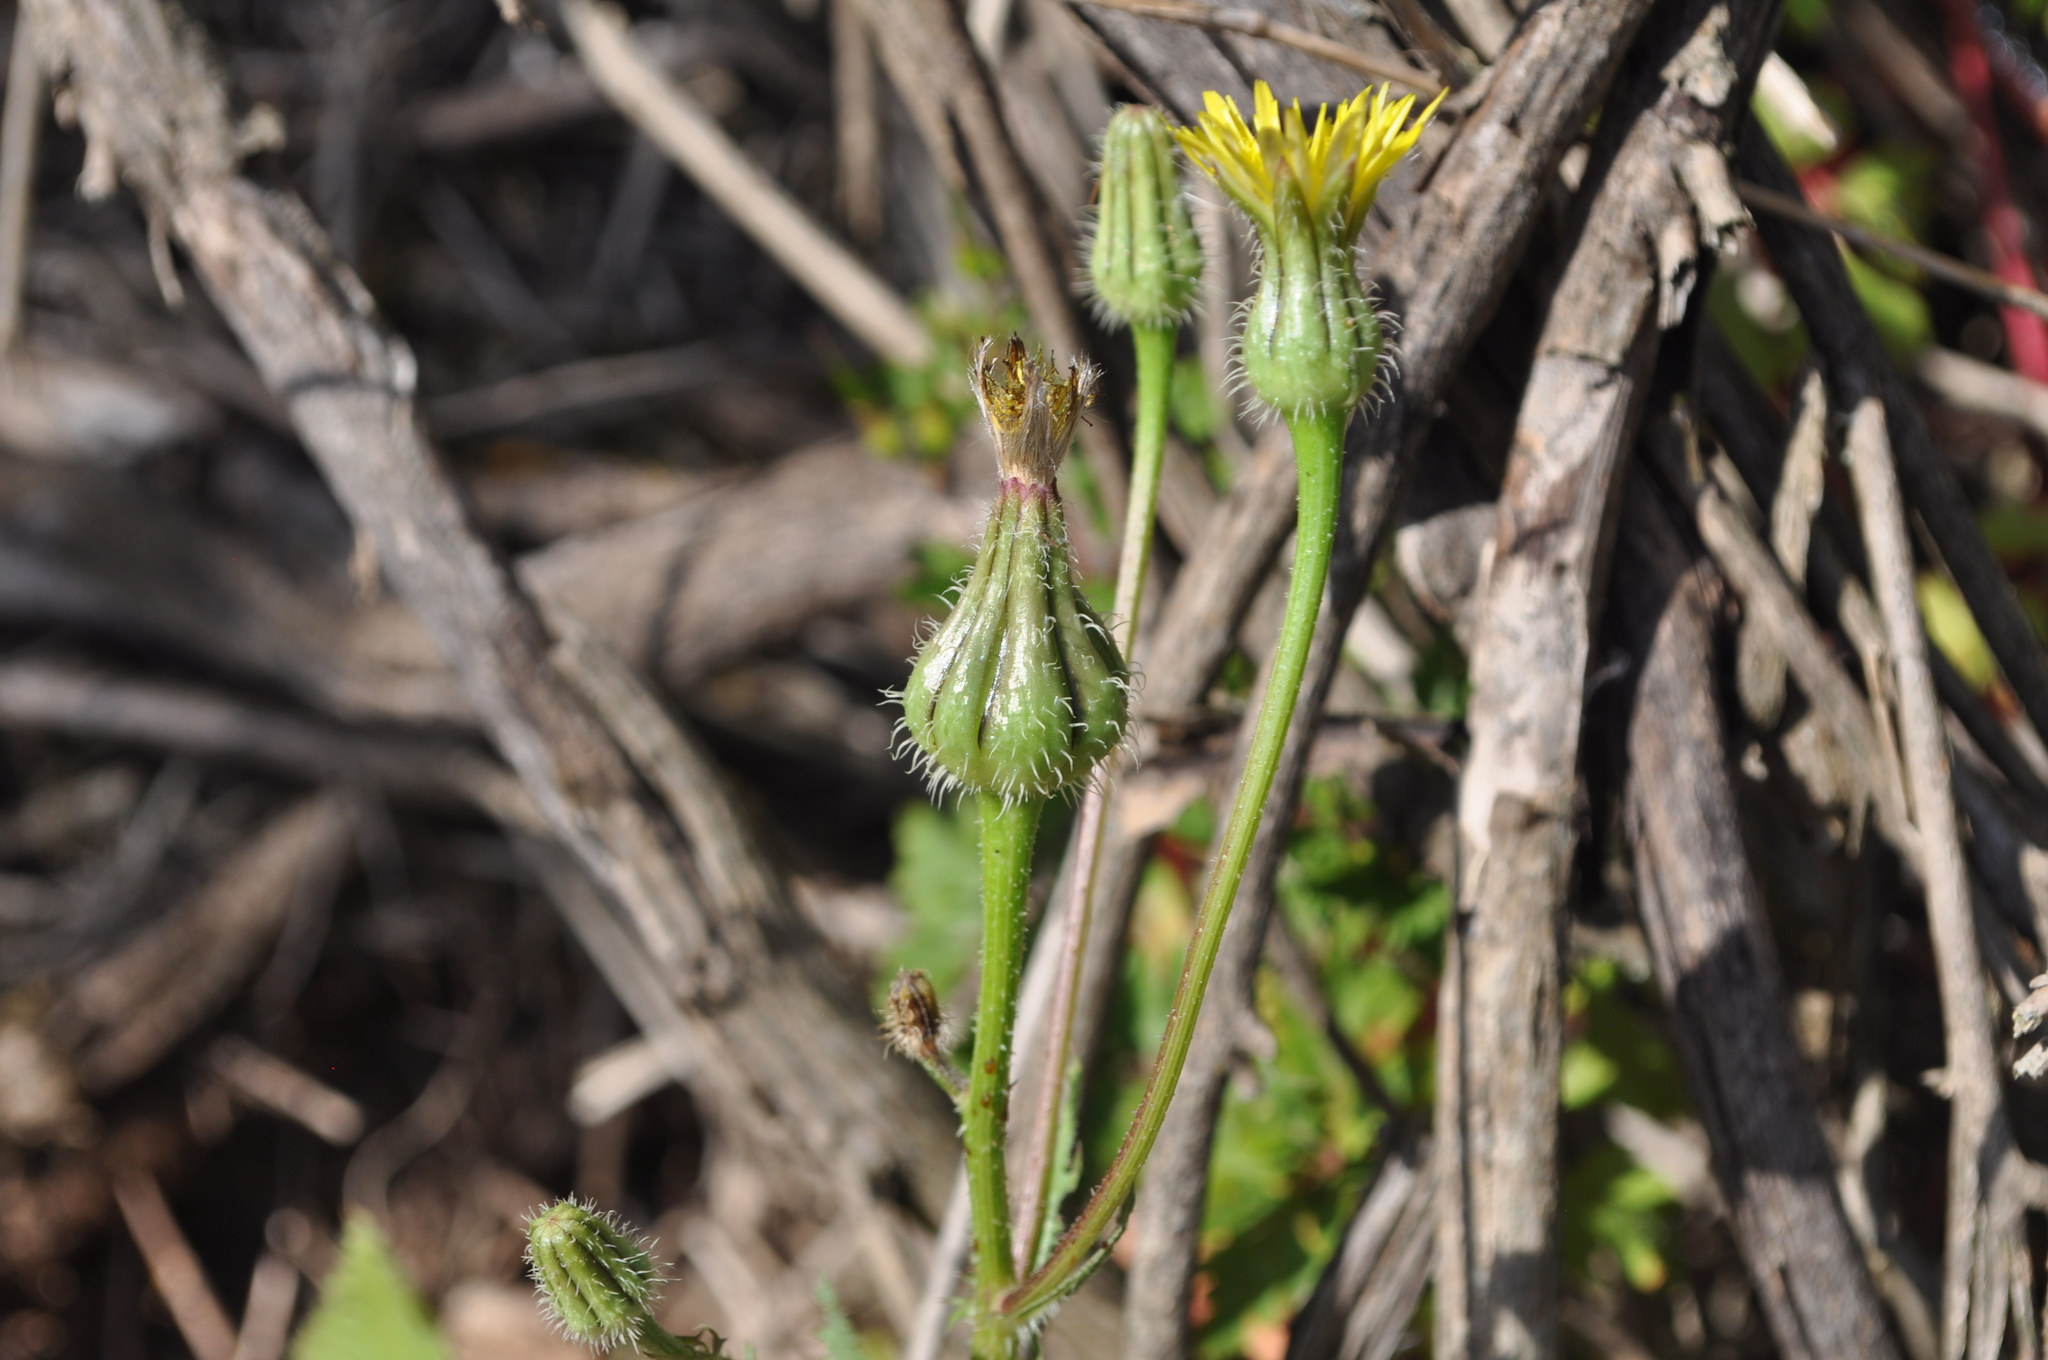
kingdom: Plantae
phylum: Tracheophyta
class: Magnoliopsida
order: Asterales
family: Asteraceae
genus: Urospermum
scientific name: Urospermum picroides
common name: False hawkbit
